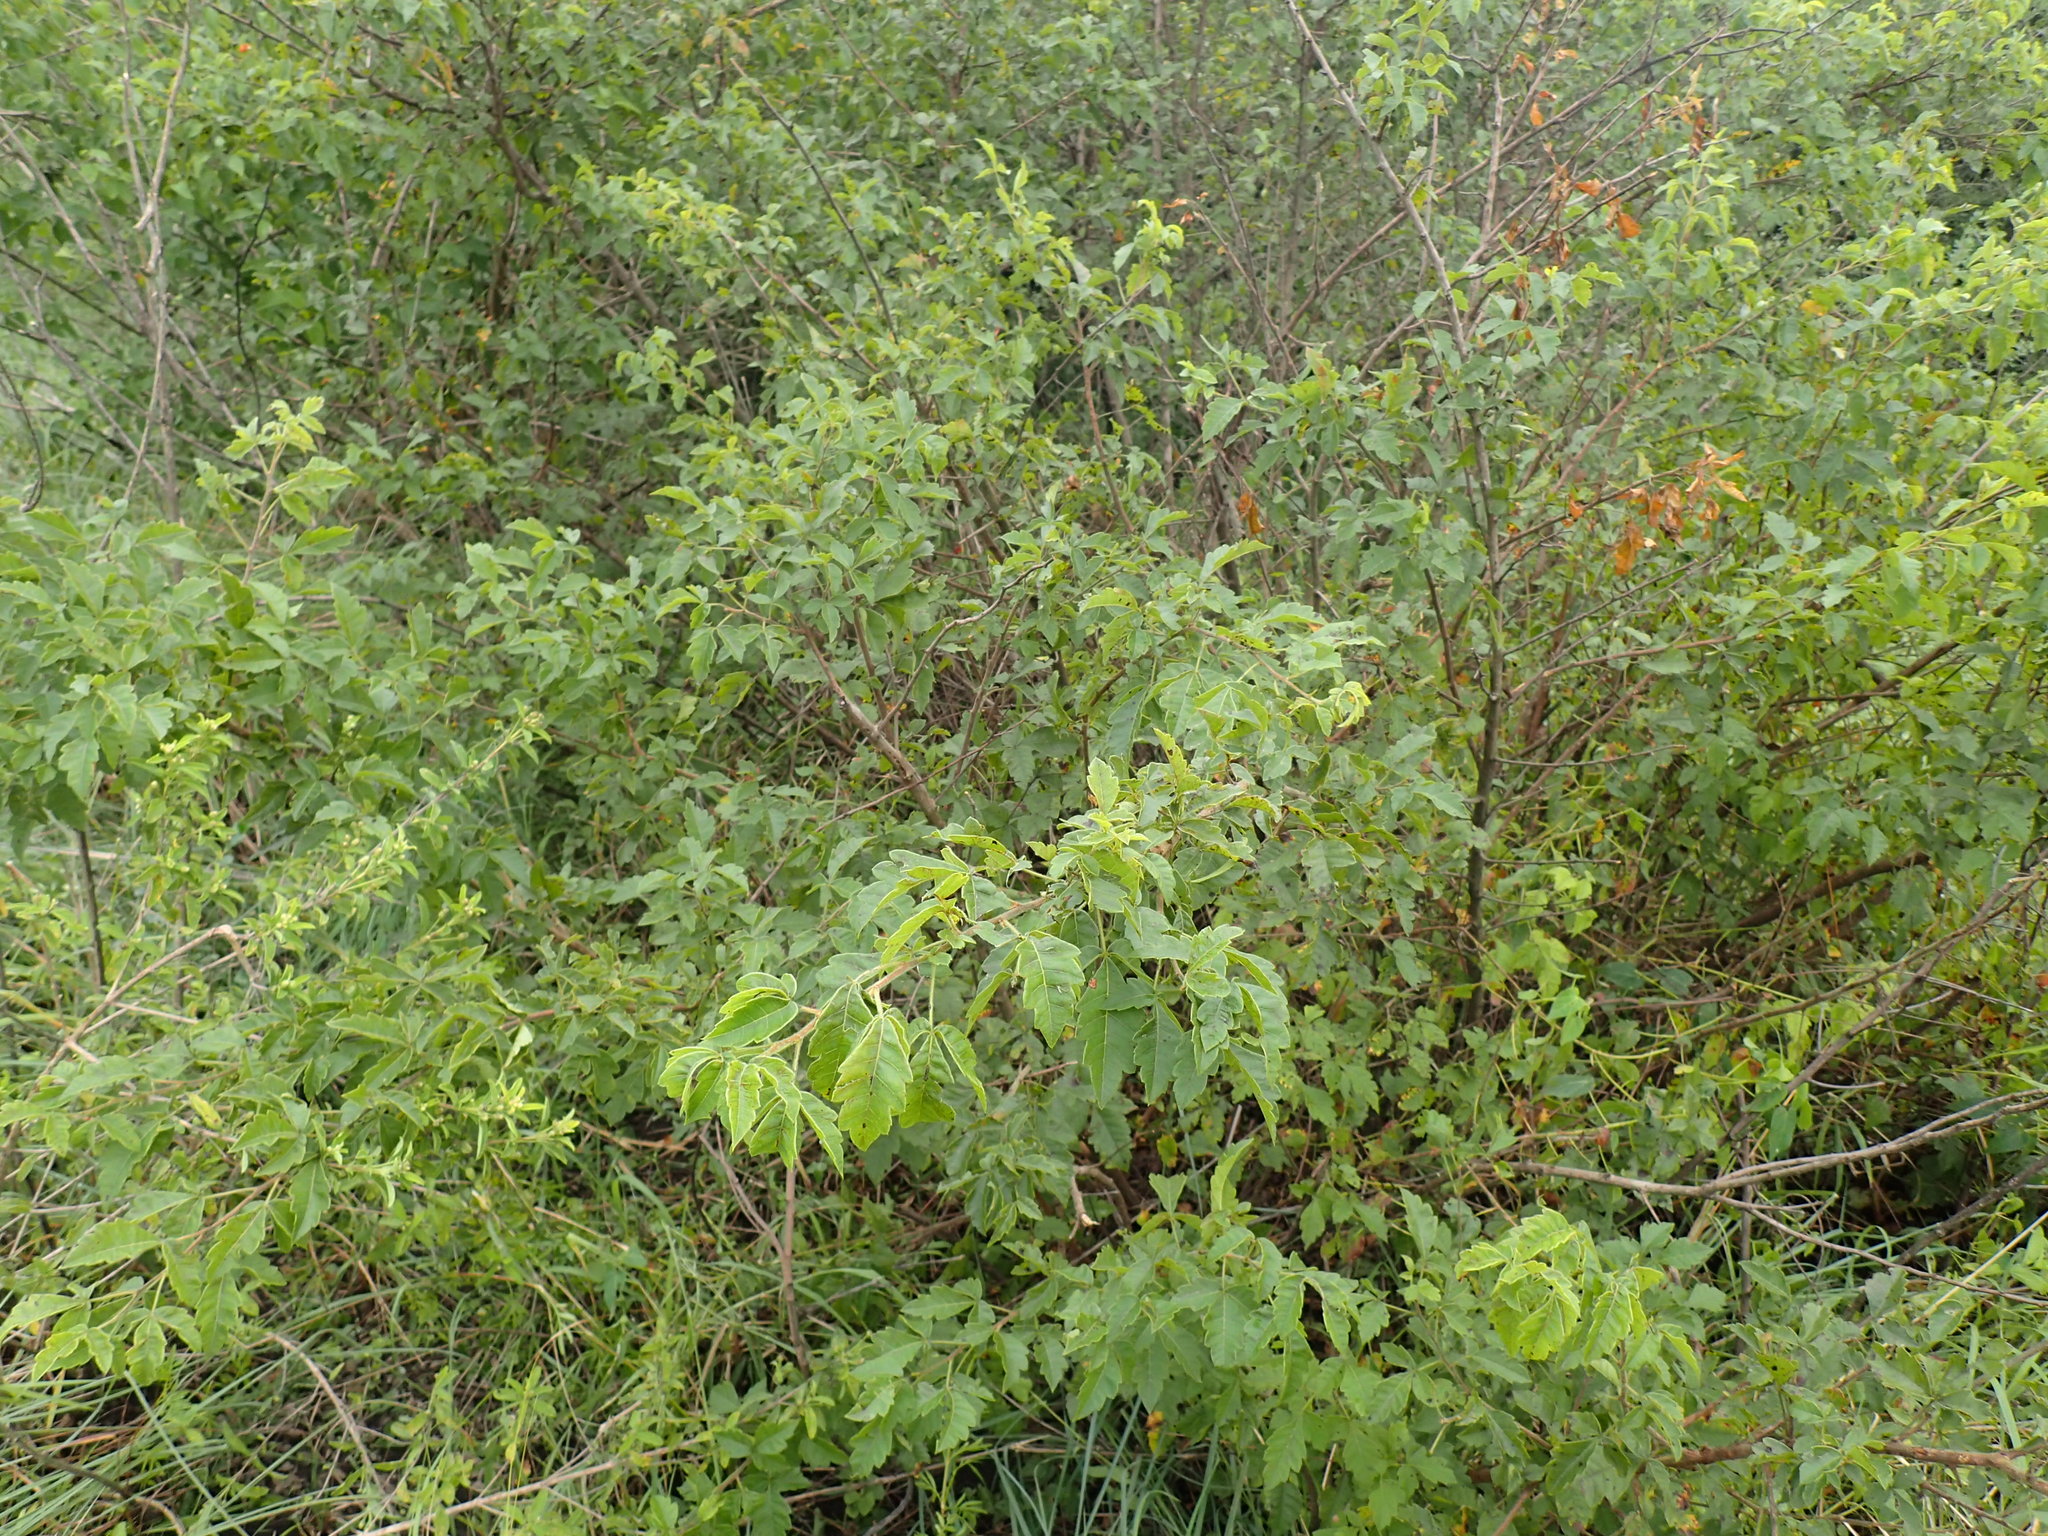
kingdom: Plantae
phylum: Tracheophyta
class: Magnoliopsida
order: Sapindales
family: Anacardiaceae
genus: Searsia
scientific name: Searsia dentata
